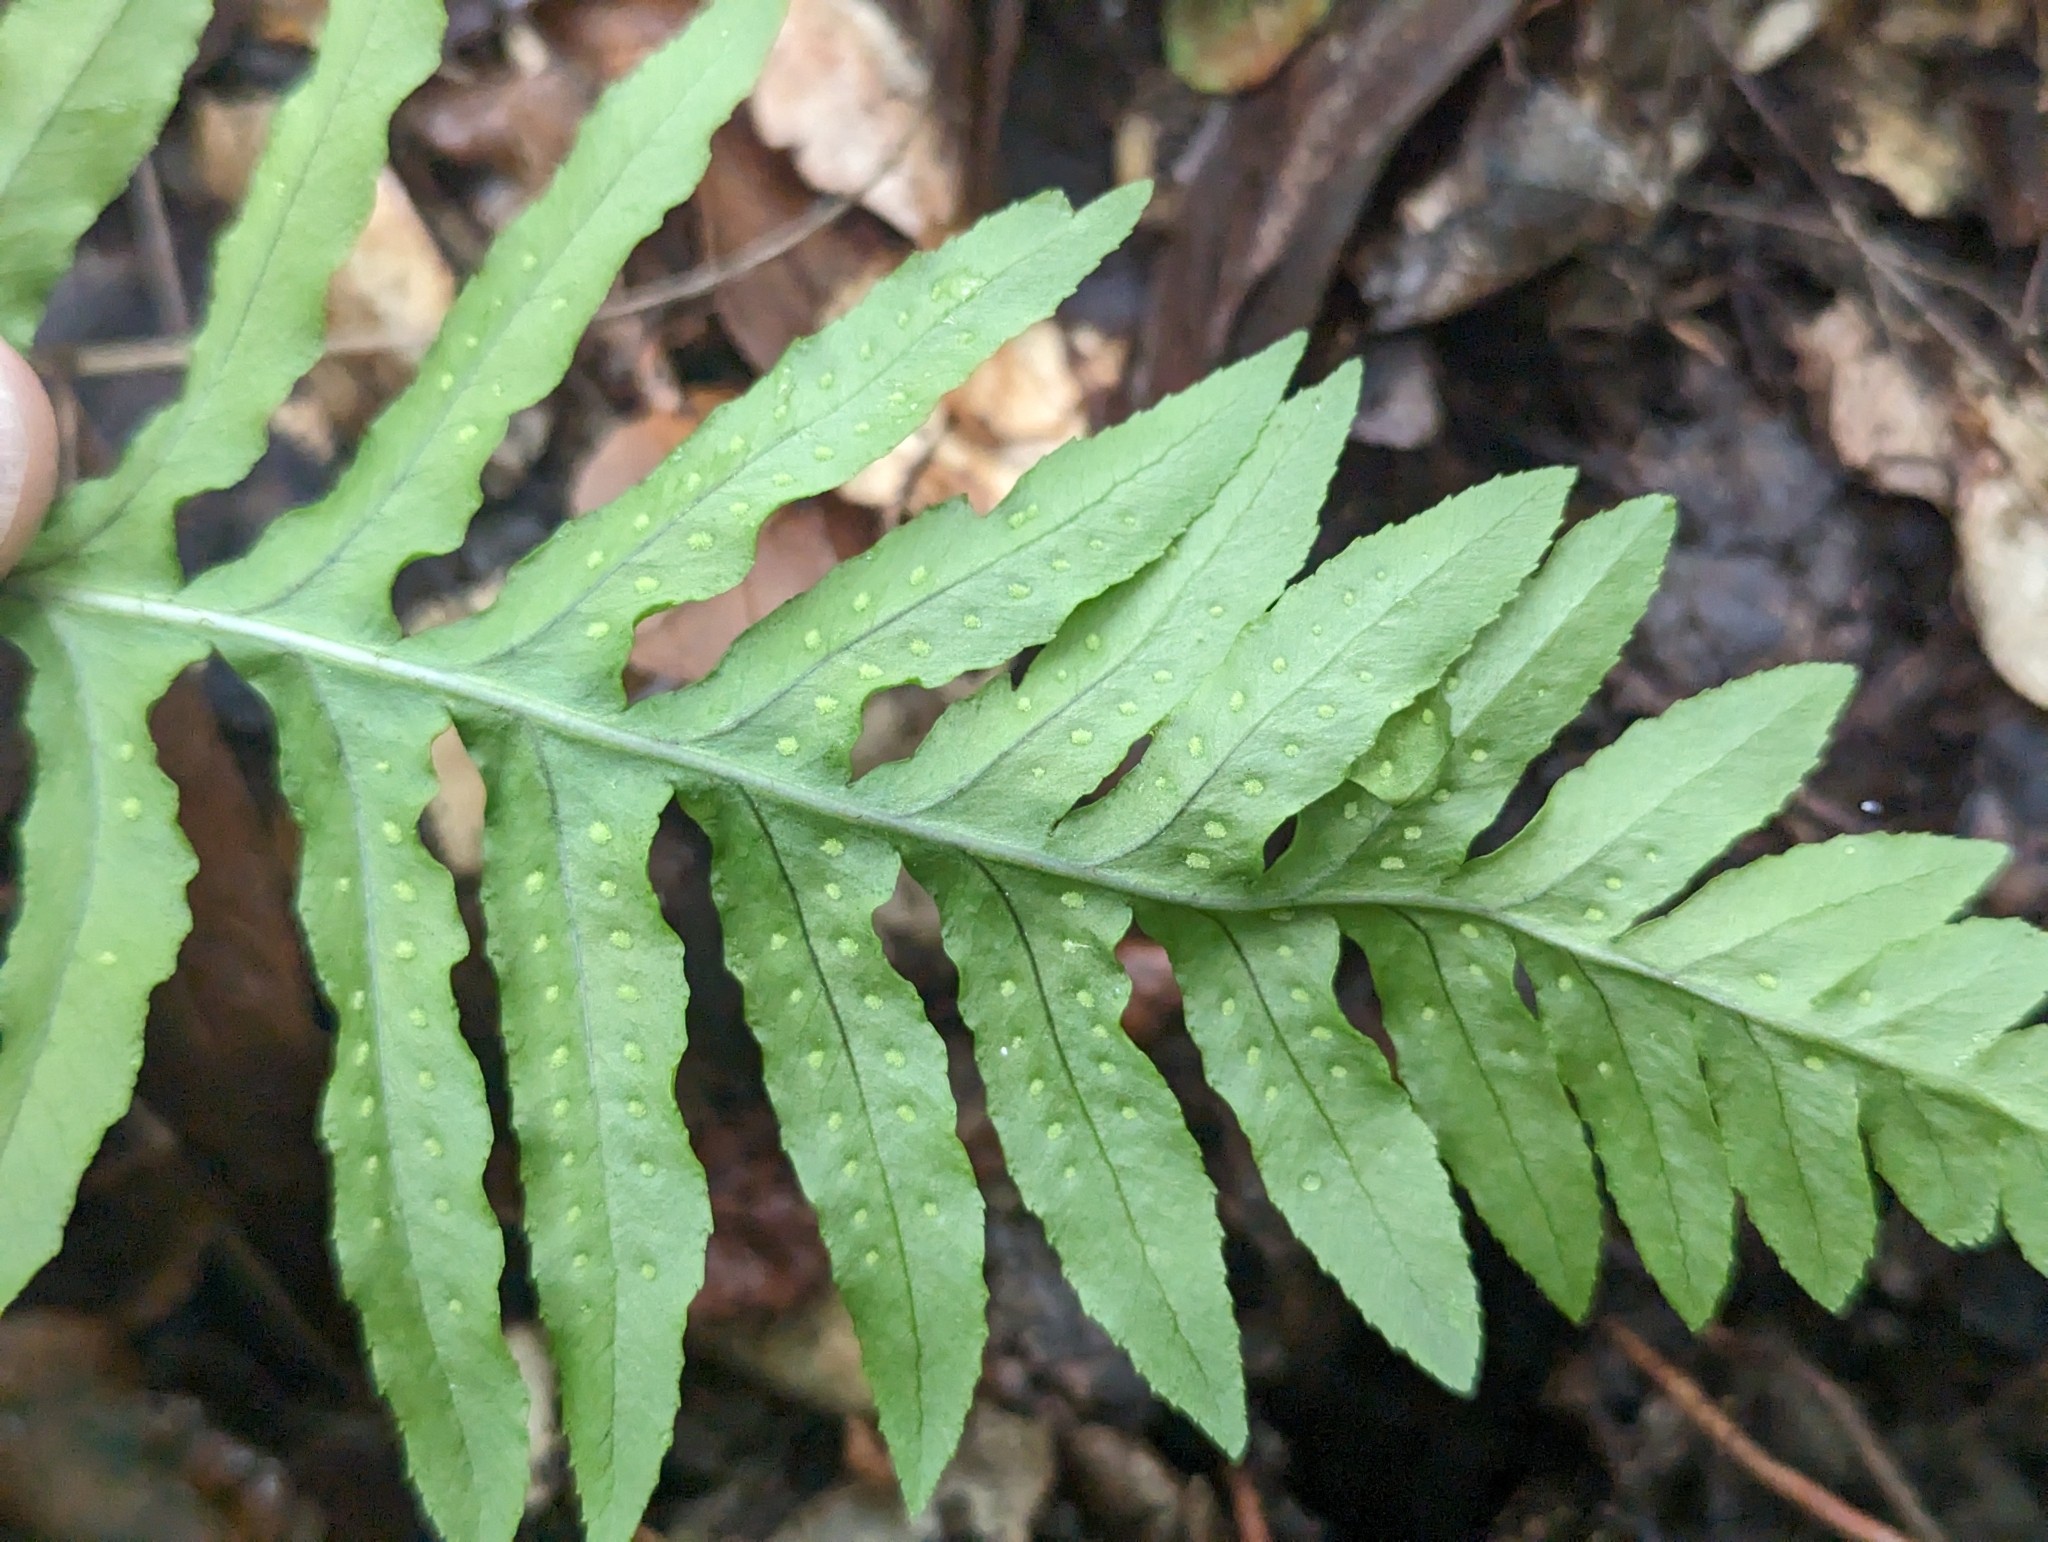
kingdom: Plantae
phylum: Tracheophyta
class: Polypodiopsida
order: Polypodiales
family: Polypodiaceae
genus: Polypodium
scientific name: Polypodium californicum
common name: California polypody
